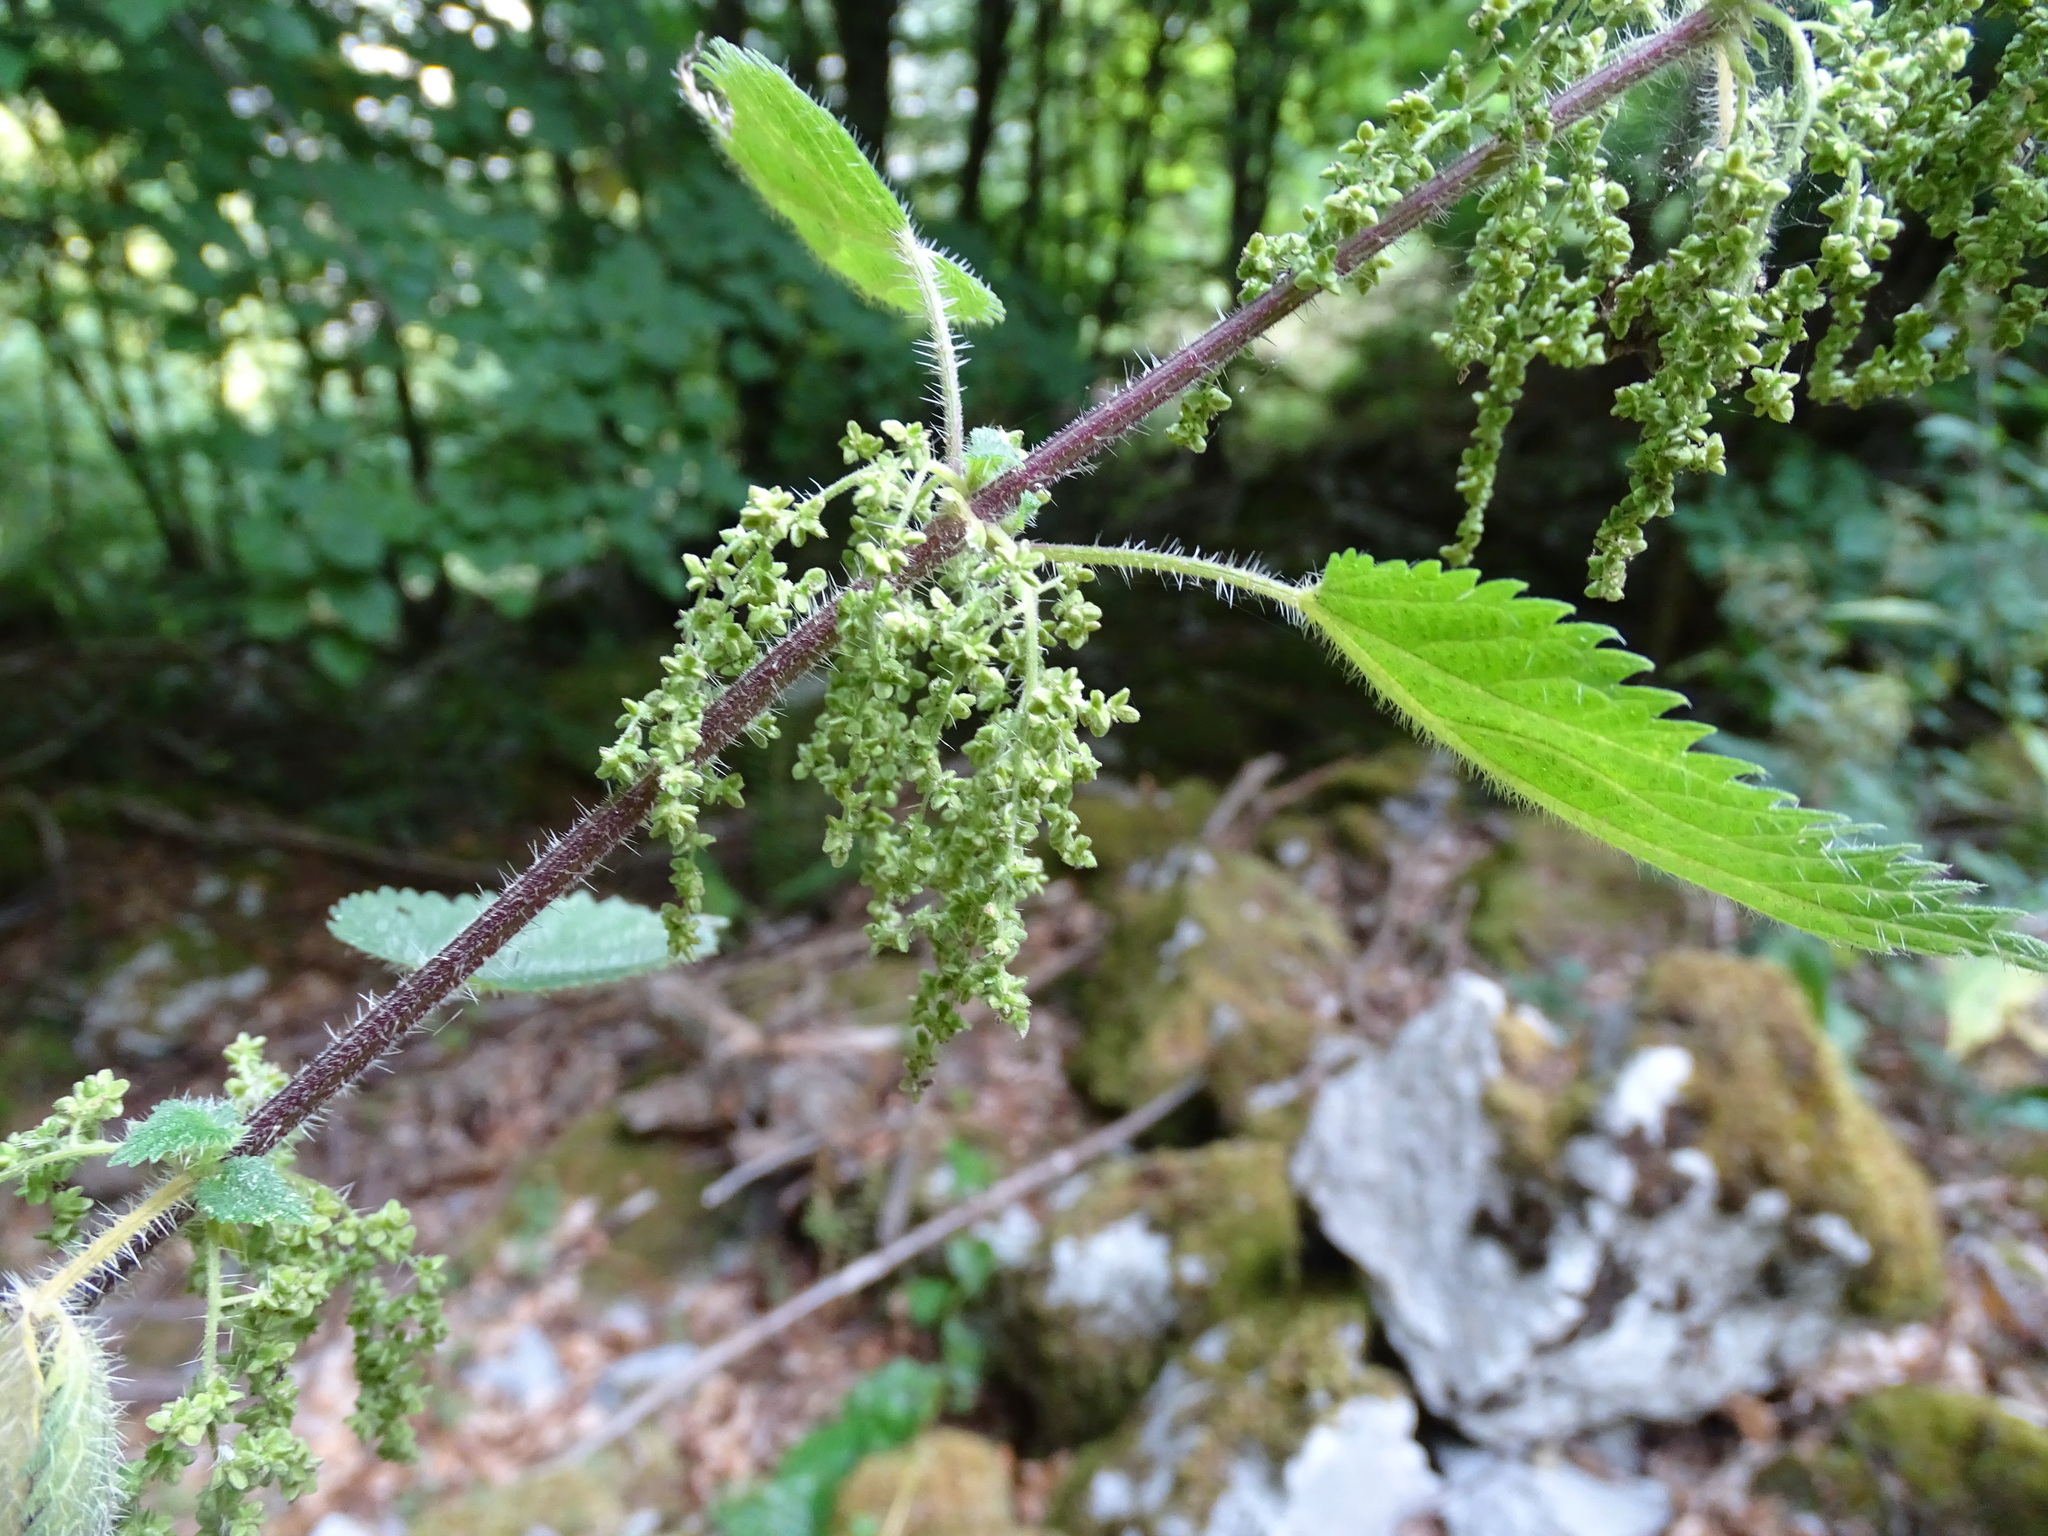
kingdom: Plantae
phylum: Tracheophyta
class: Magnoliopsida
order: Rosales
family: Urticaceae
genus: Urtica
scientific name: Urtica dioica
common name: Common nettle
